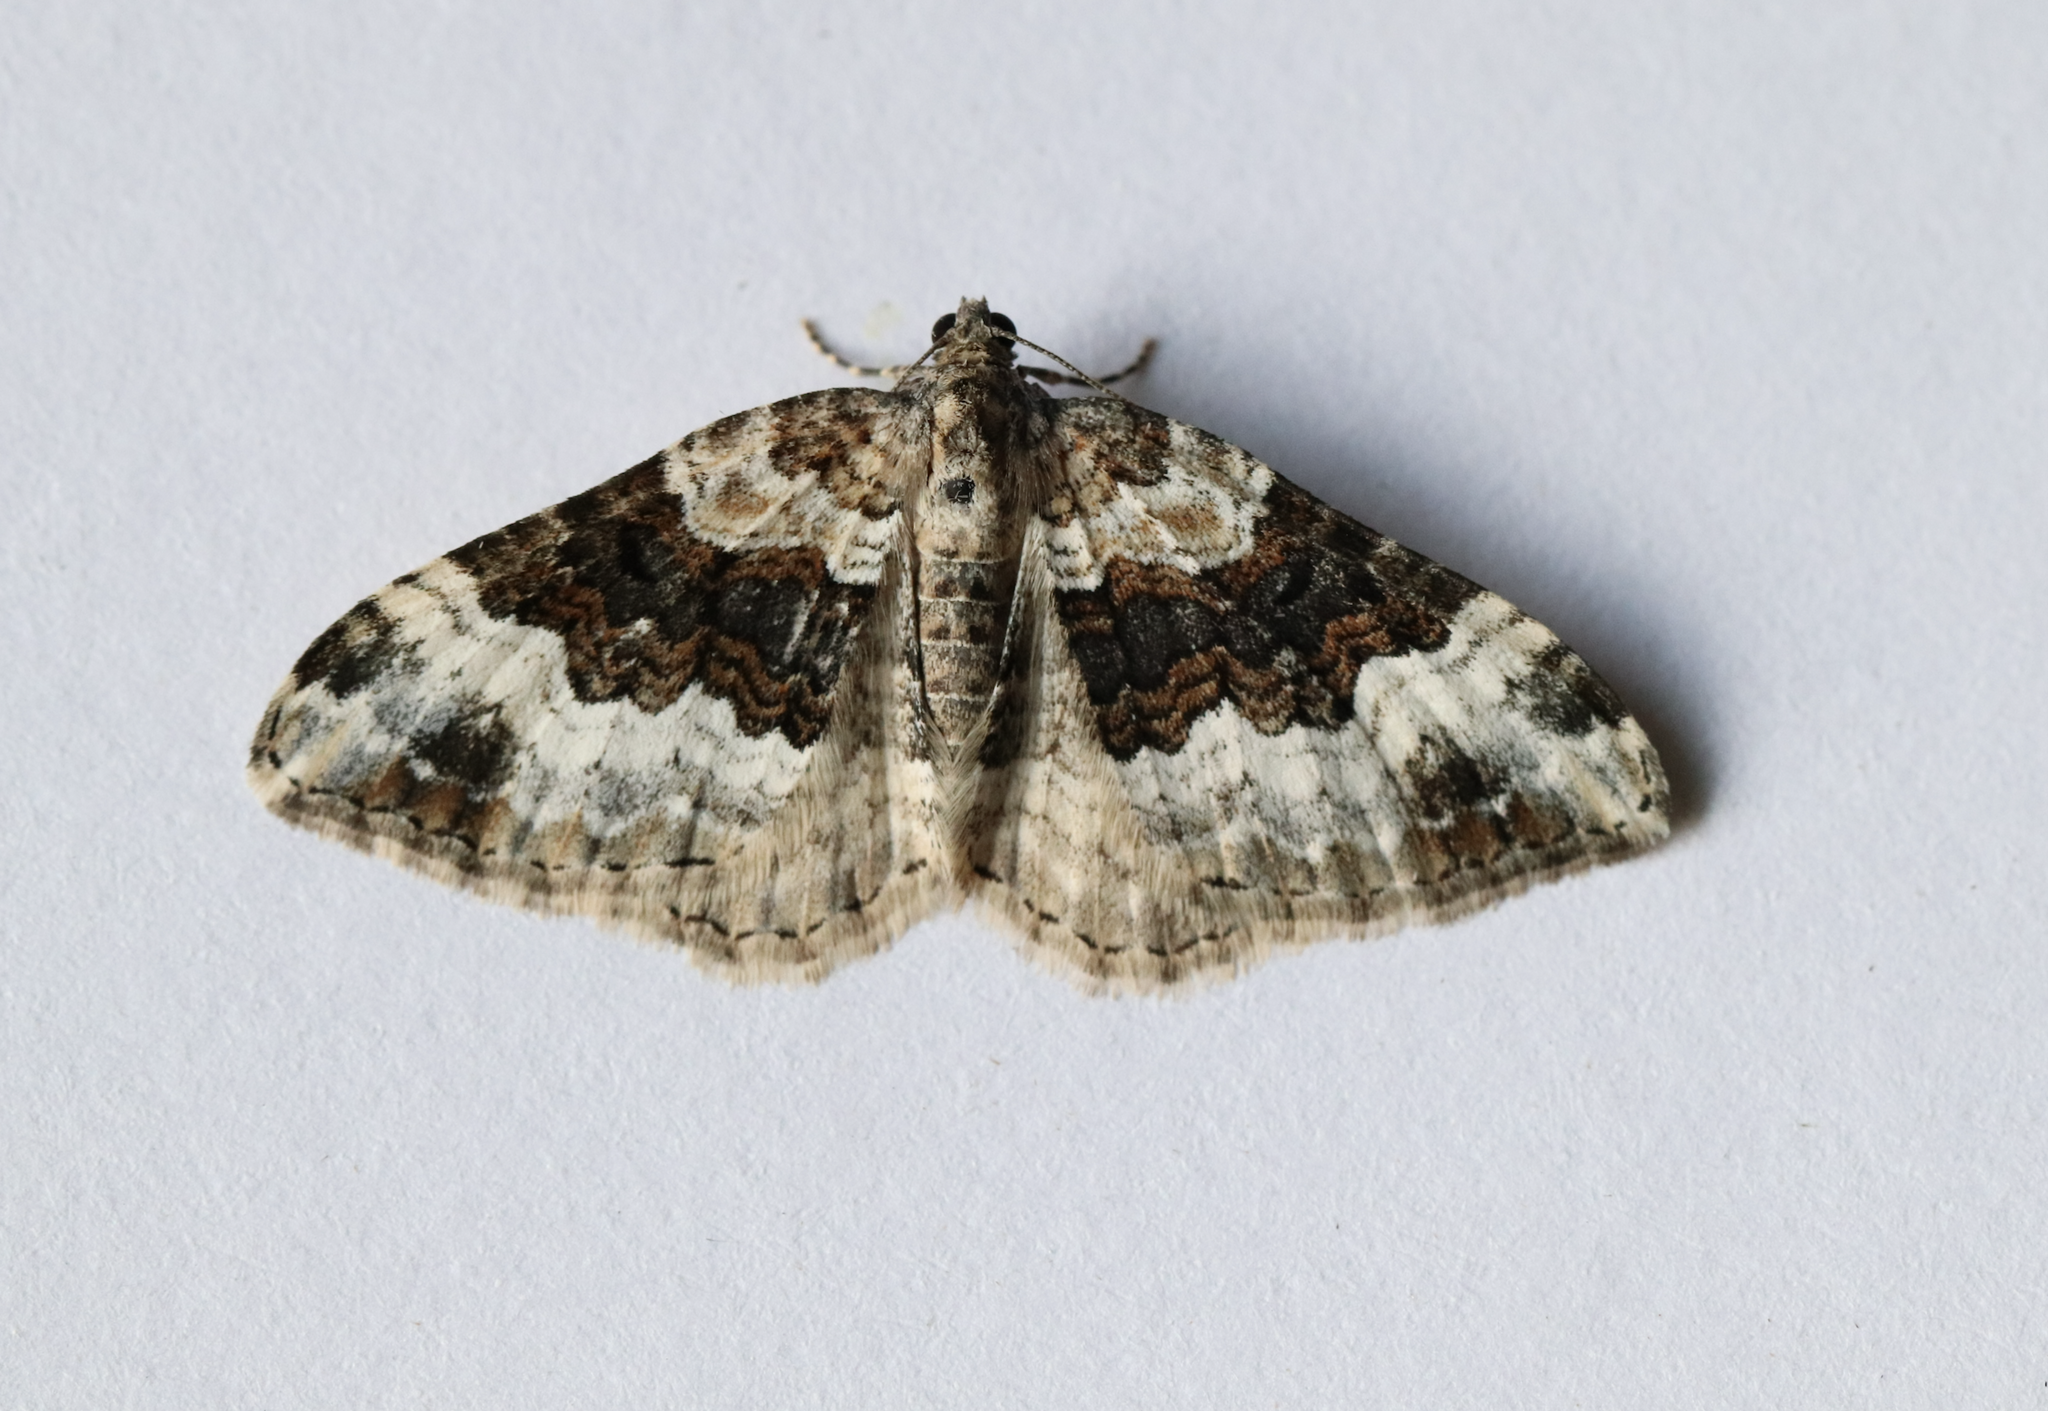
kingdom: Animalia
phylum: Arthropoda
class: Insecta
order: Lepidoptera
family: Geometridae
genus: Epirrhoe
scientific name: Epirrhoe galiata
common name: Galium carpet
